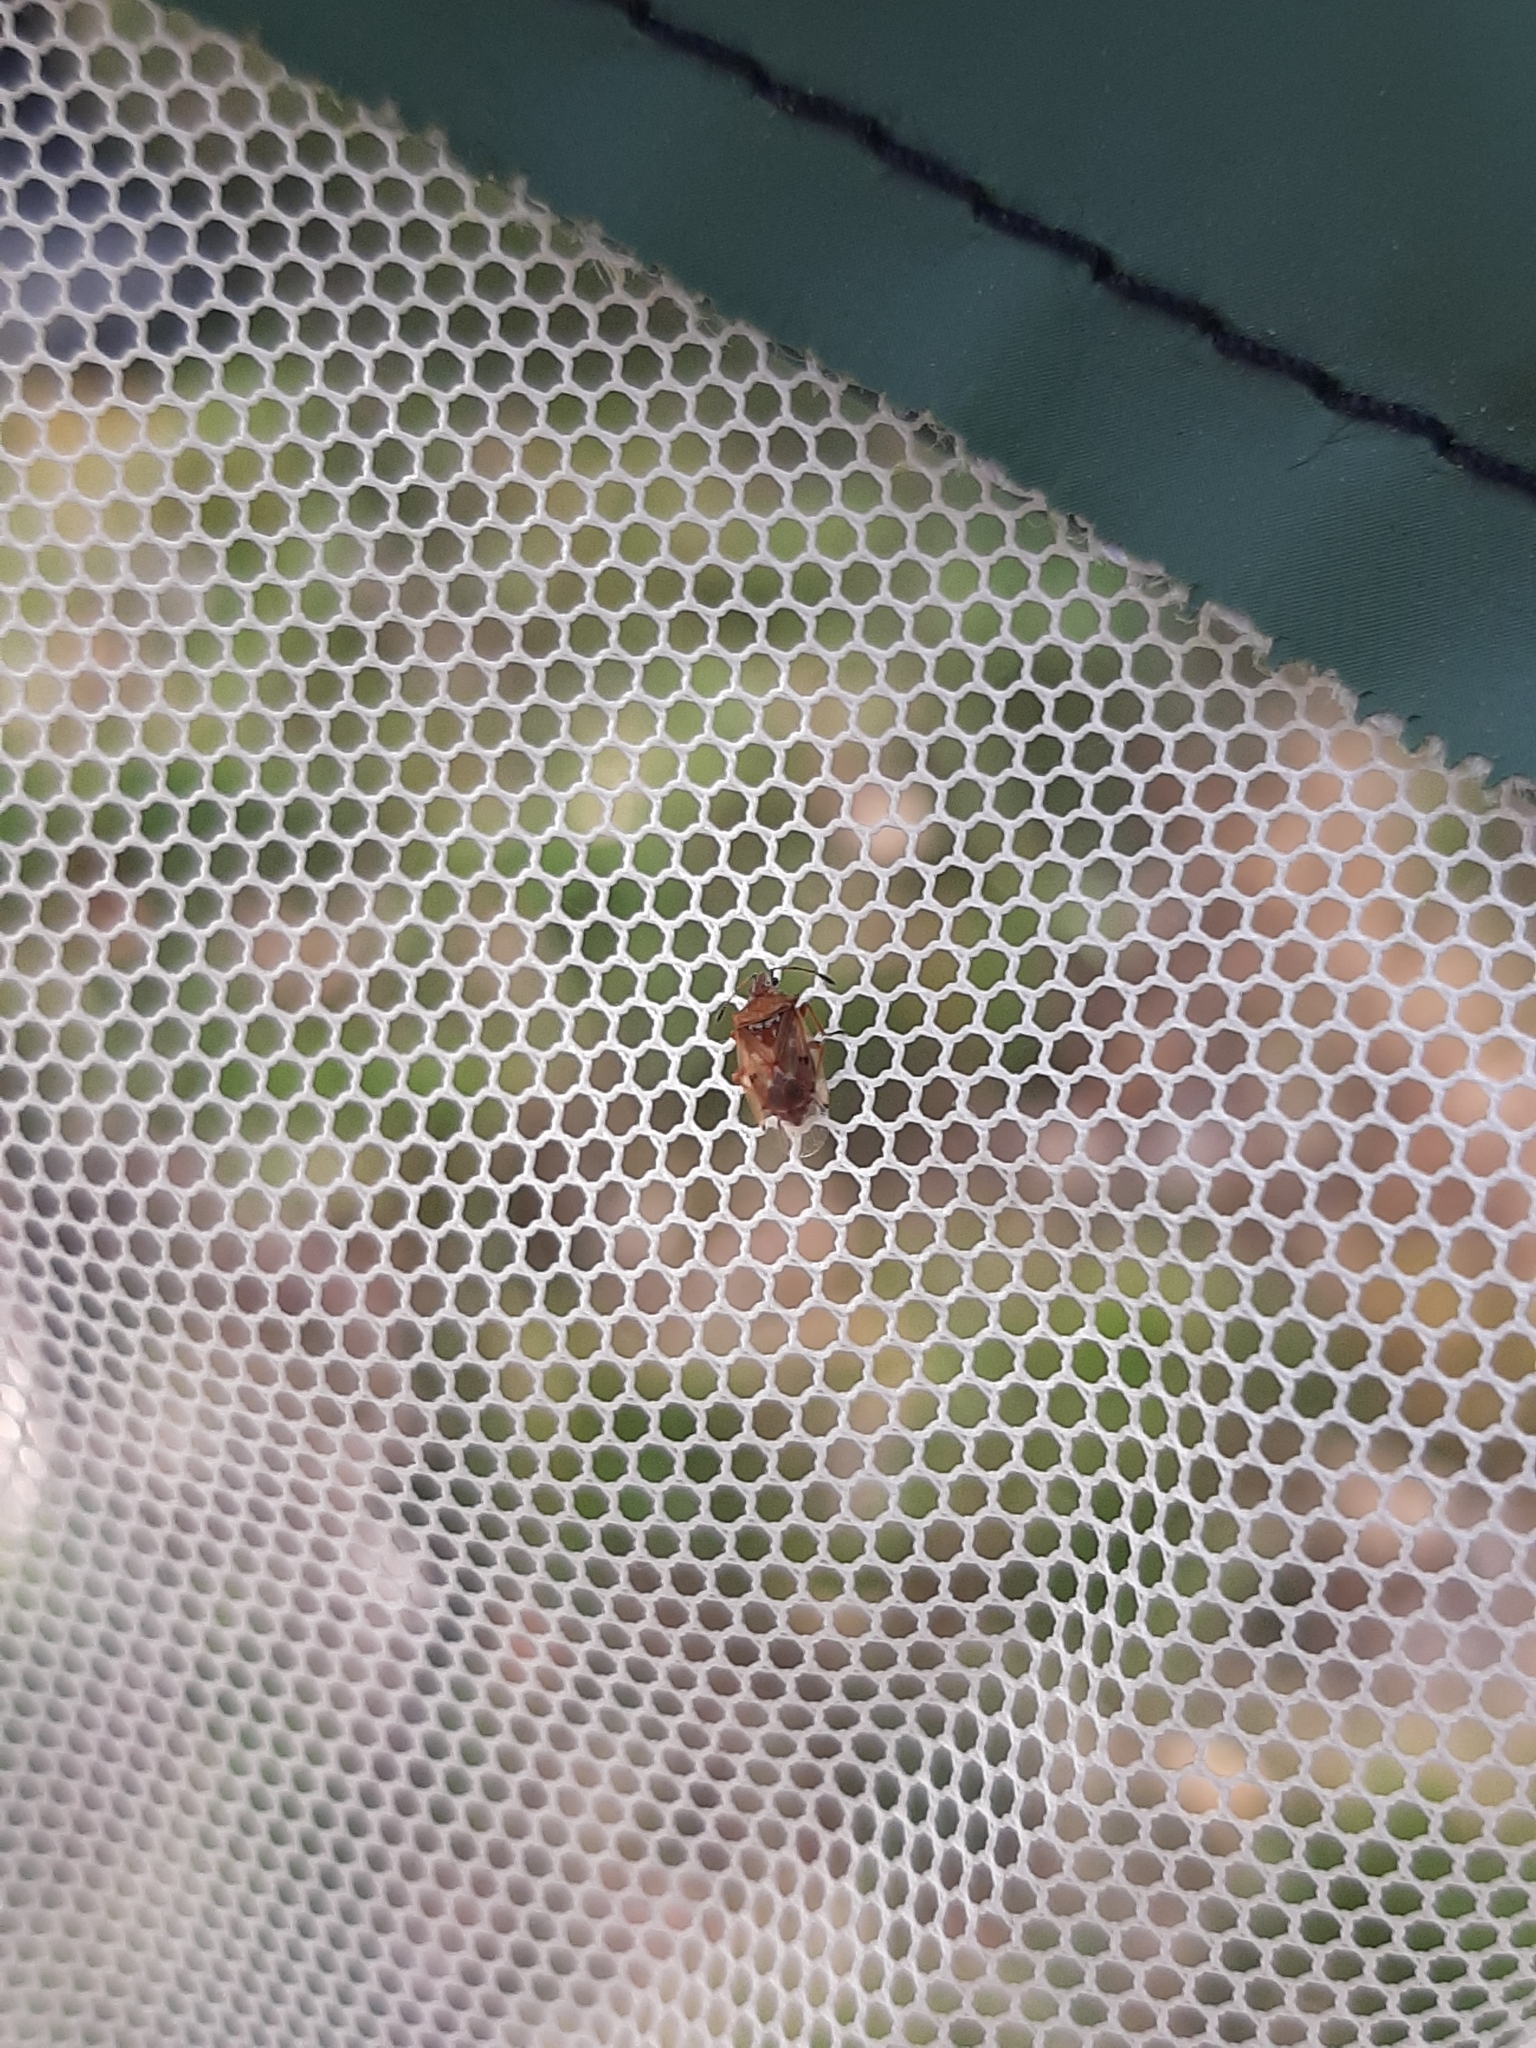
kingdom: Animalia
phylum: Arthropoda
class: Insecta
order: Hemiptera
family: Lygaeidae
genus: Kleidocerys
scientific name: Kleidocerys resedae
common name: Birch catkin bug
